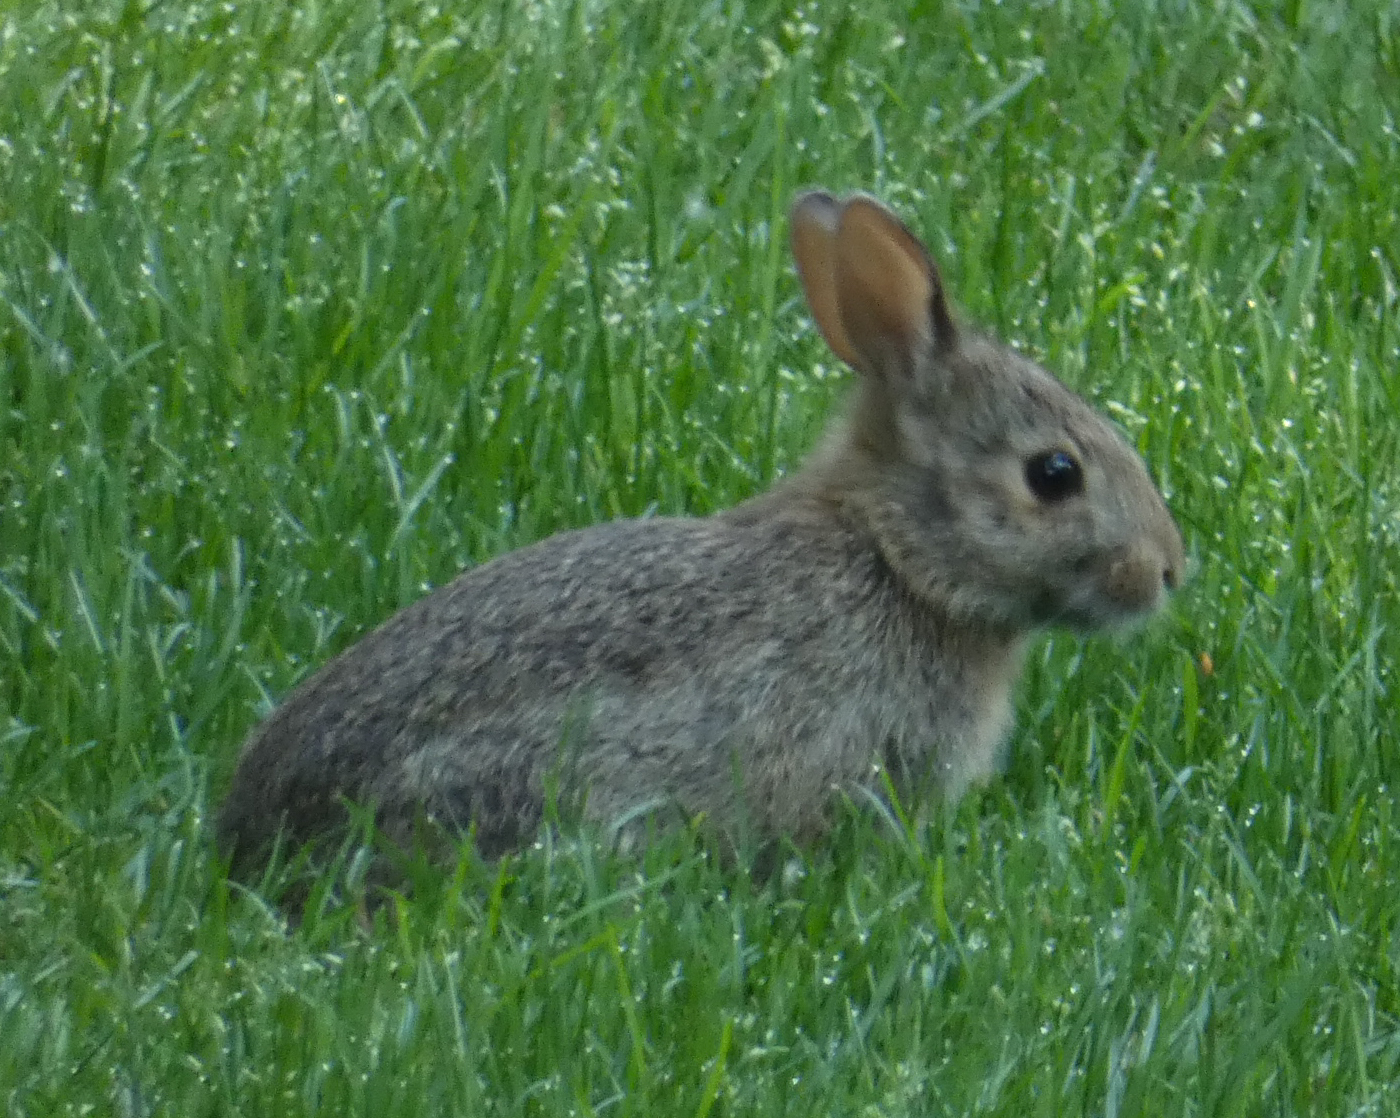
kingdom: Animalia
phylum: Chordata
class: Mammalia
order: Lagomorpha
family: Leporidae
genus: Sylvilagus
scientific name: Sylvilagus floridanus
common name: Eastern cottontail
